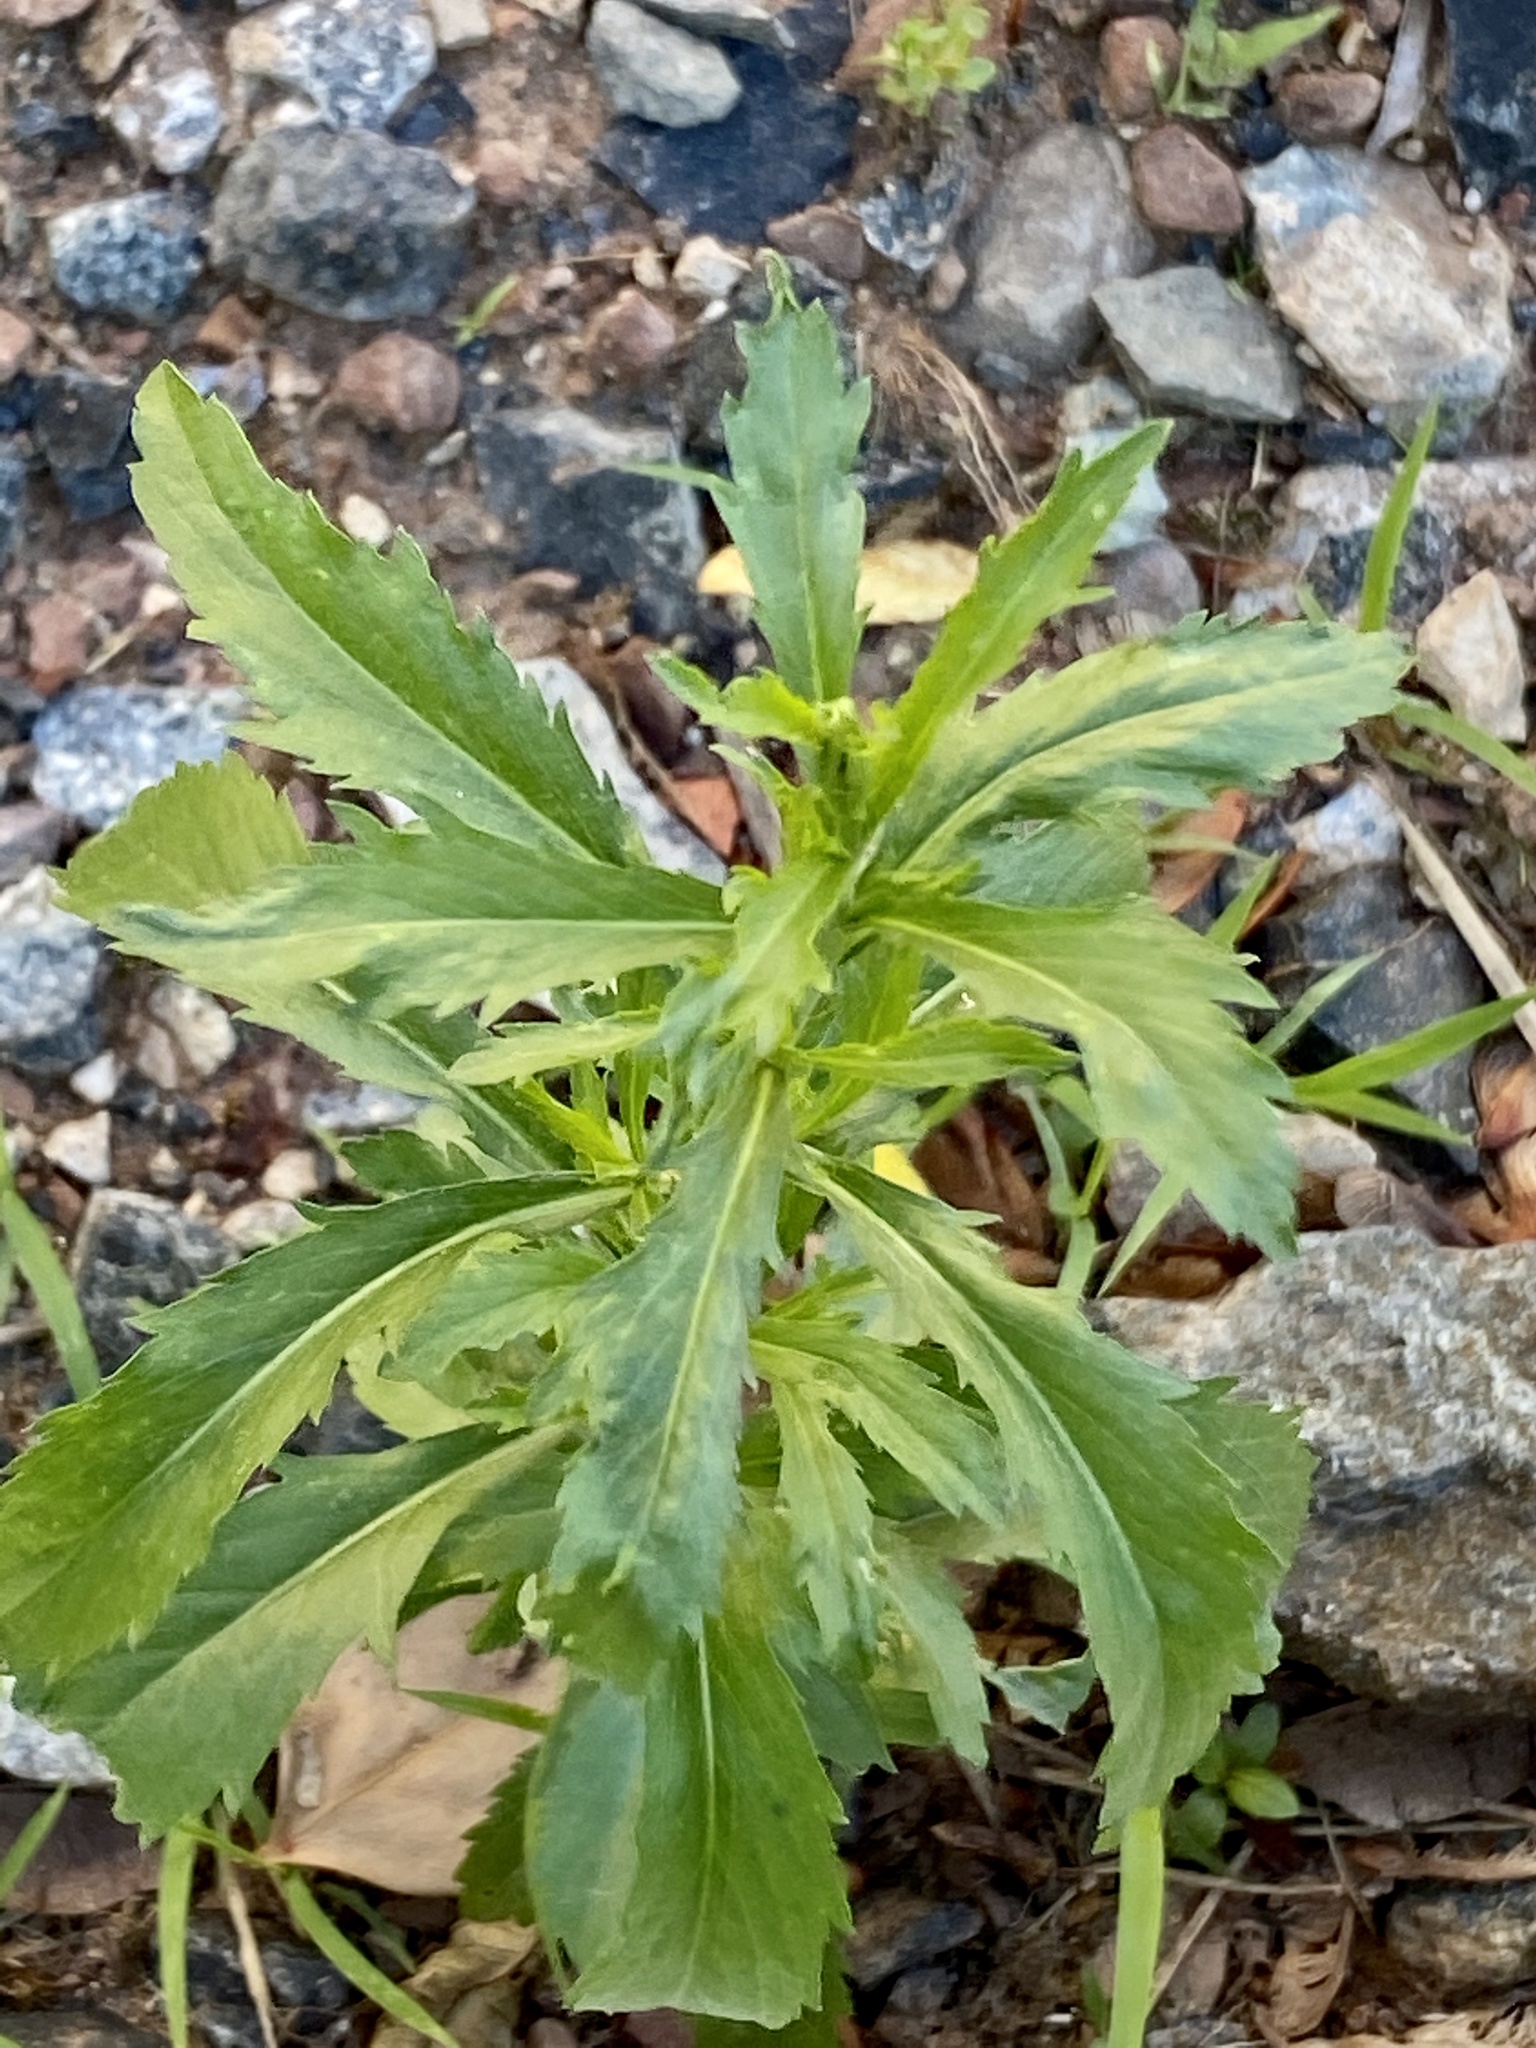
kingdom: Plantae
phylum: Tracheophyta
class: Magnoliopsida
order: Caryophyllales
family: Amaranthaceae
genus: Dysphania
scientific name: Dysphania ambrosioides
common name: Wormseed
